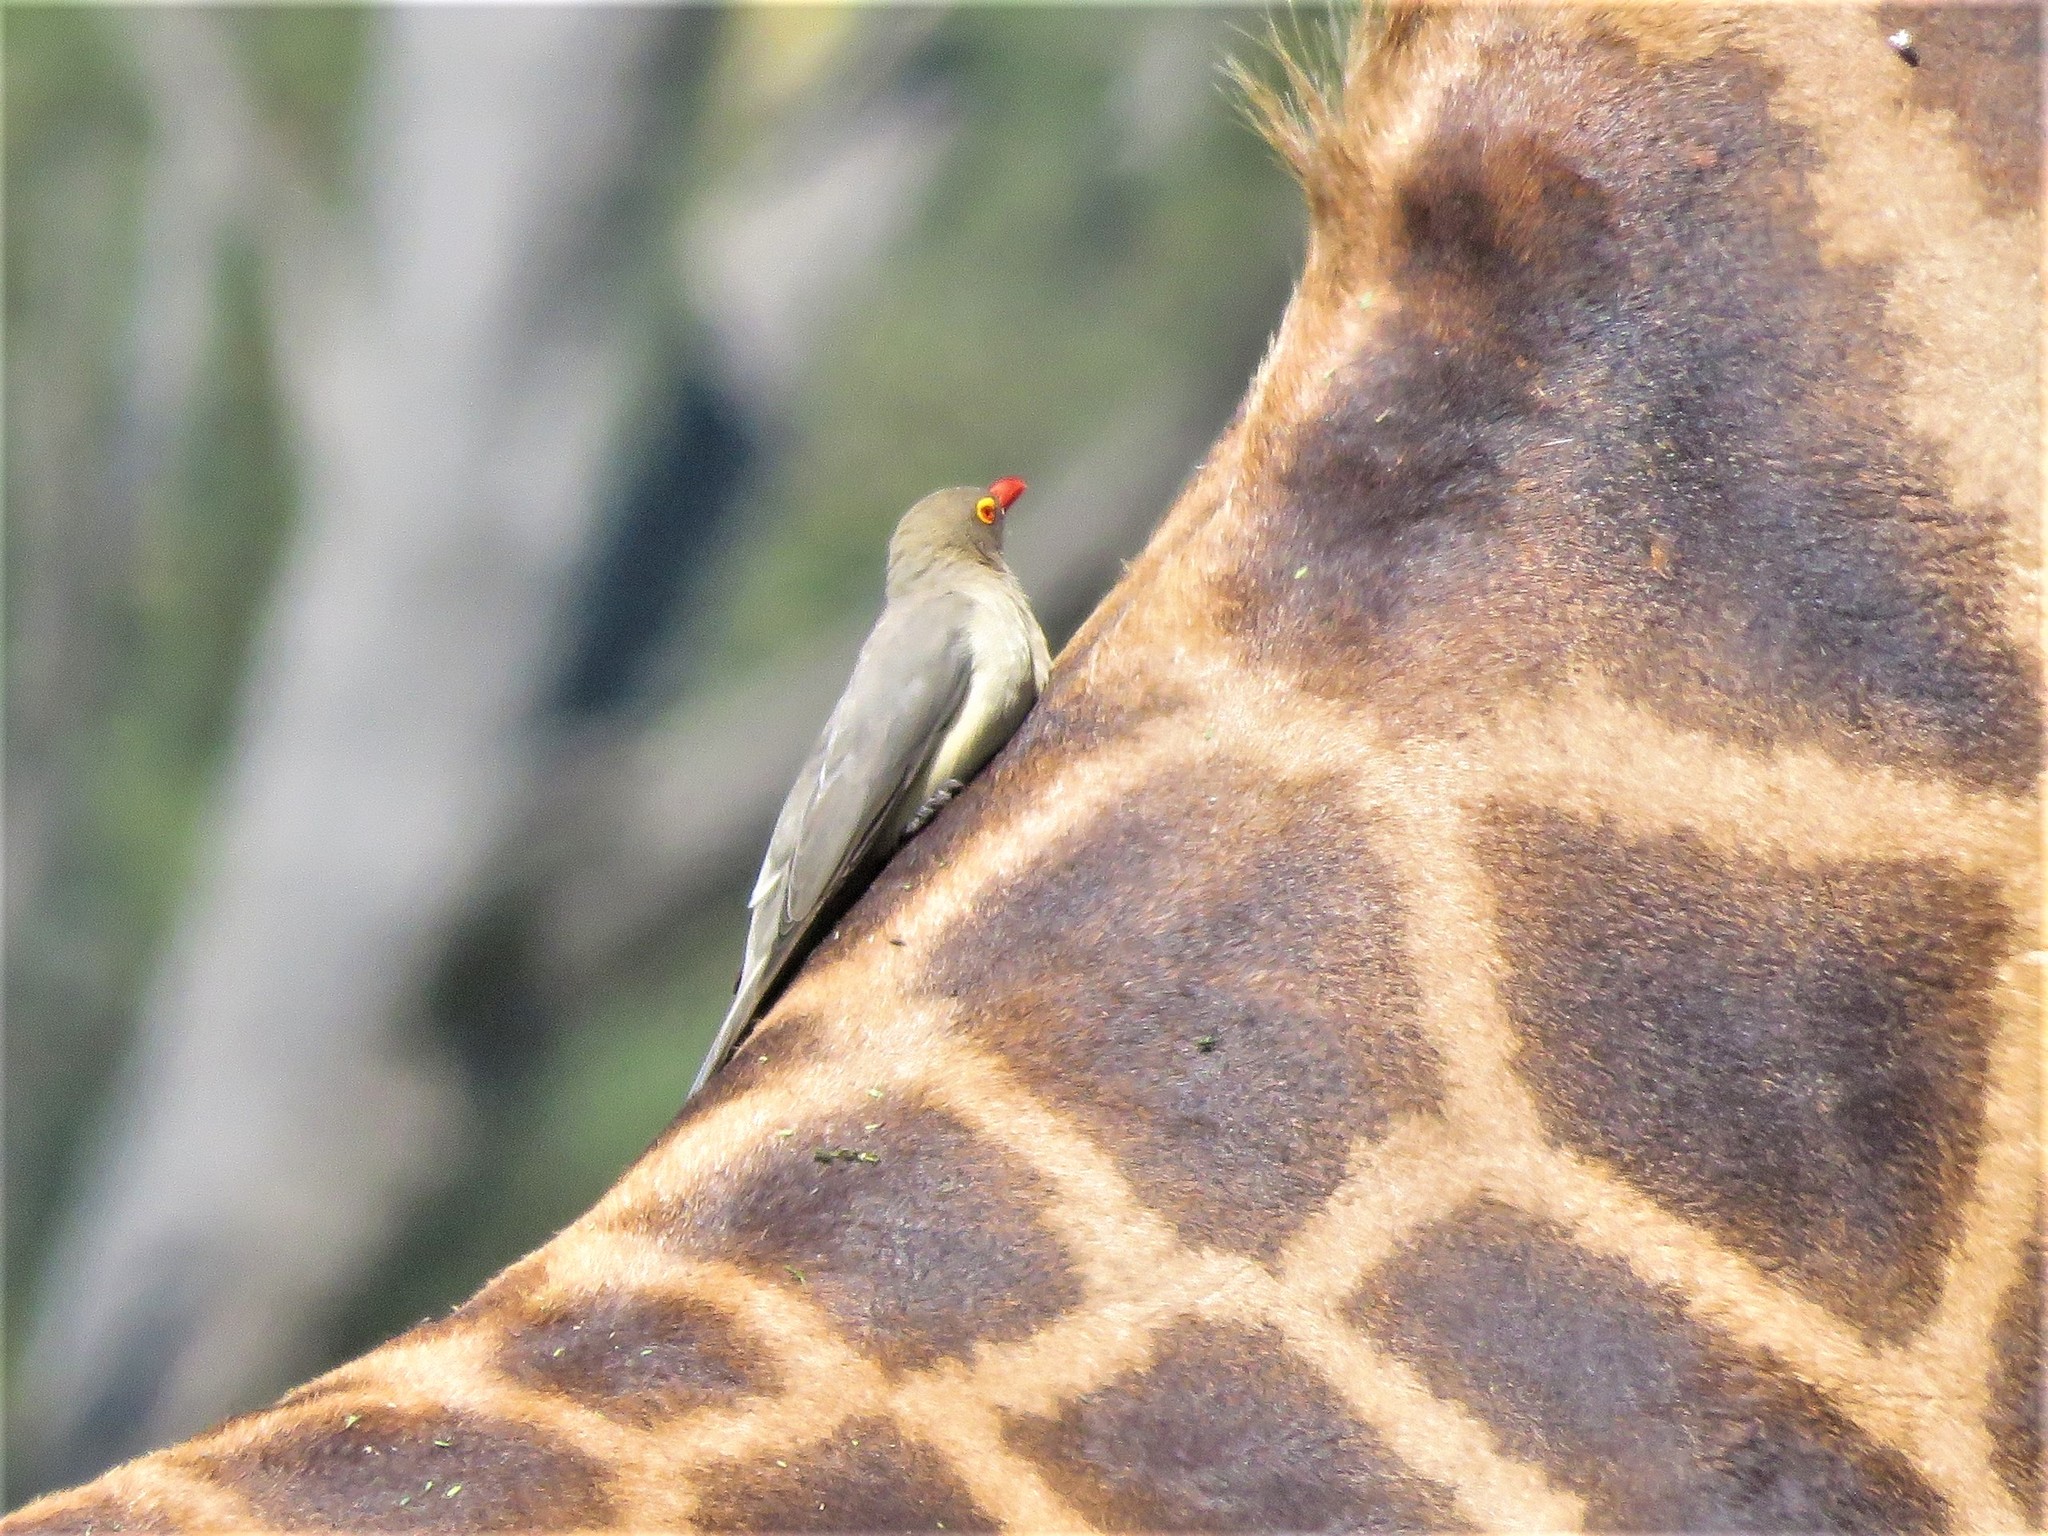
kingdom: Animalia
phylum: Chordata
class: Aves
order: Passeriformes
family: Buphagidae
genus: Buphagus
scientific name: Buphagus erythrorhynchus
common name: Red-billed oxpecker
